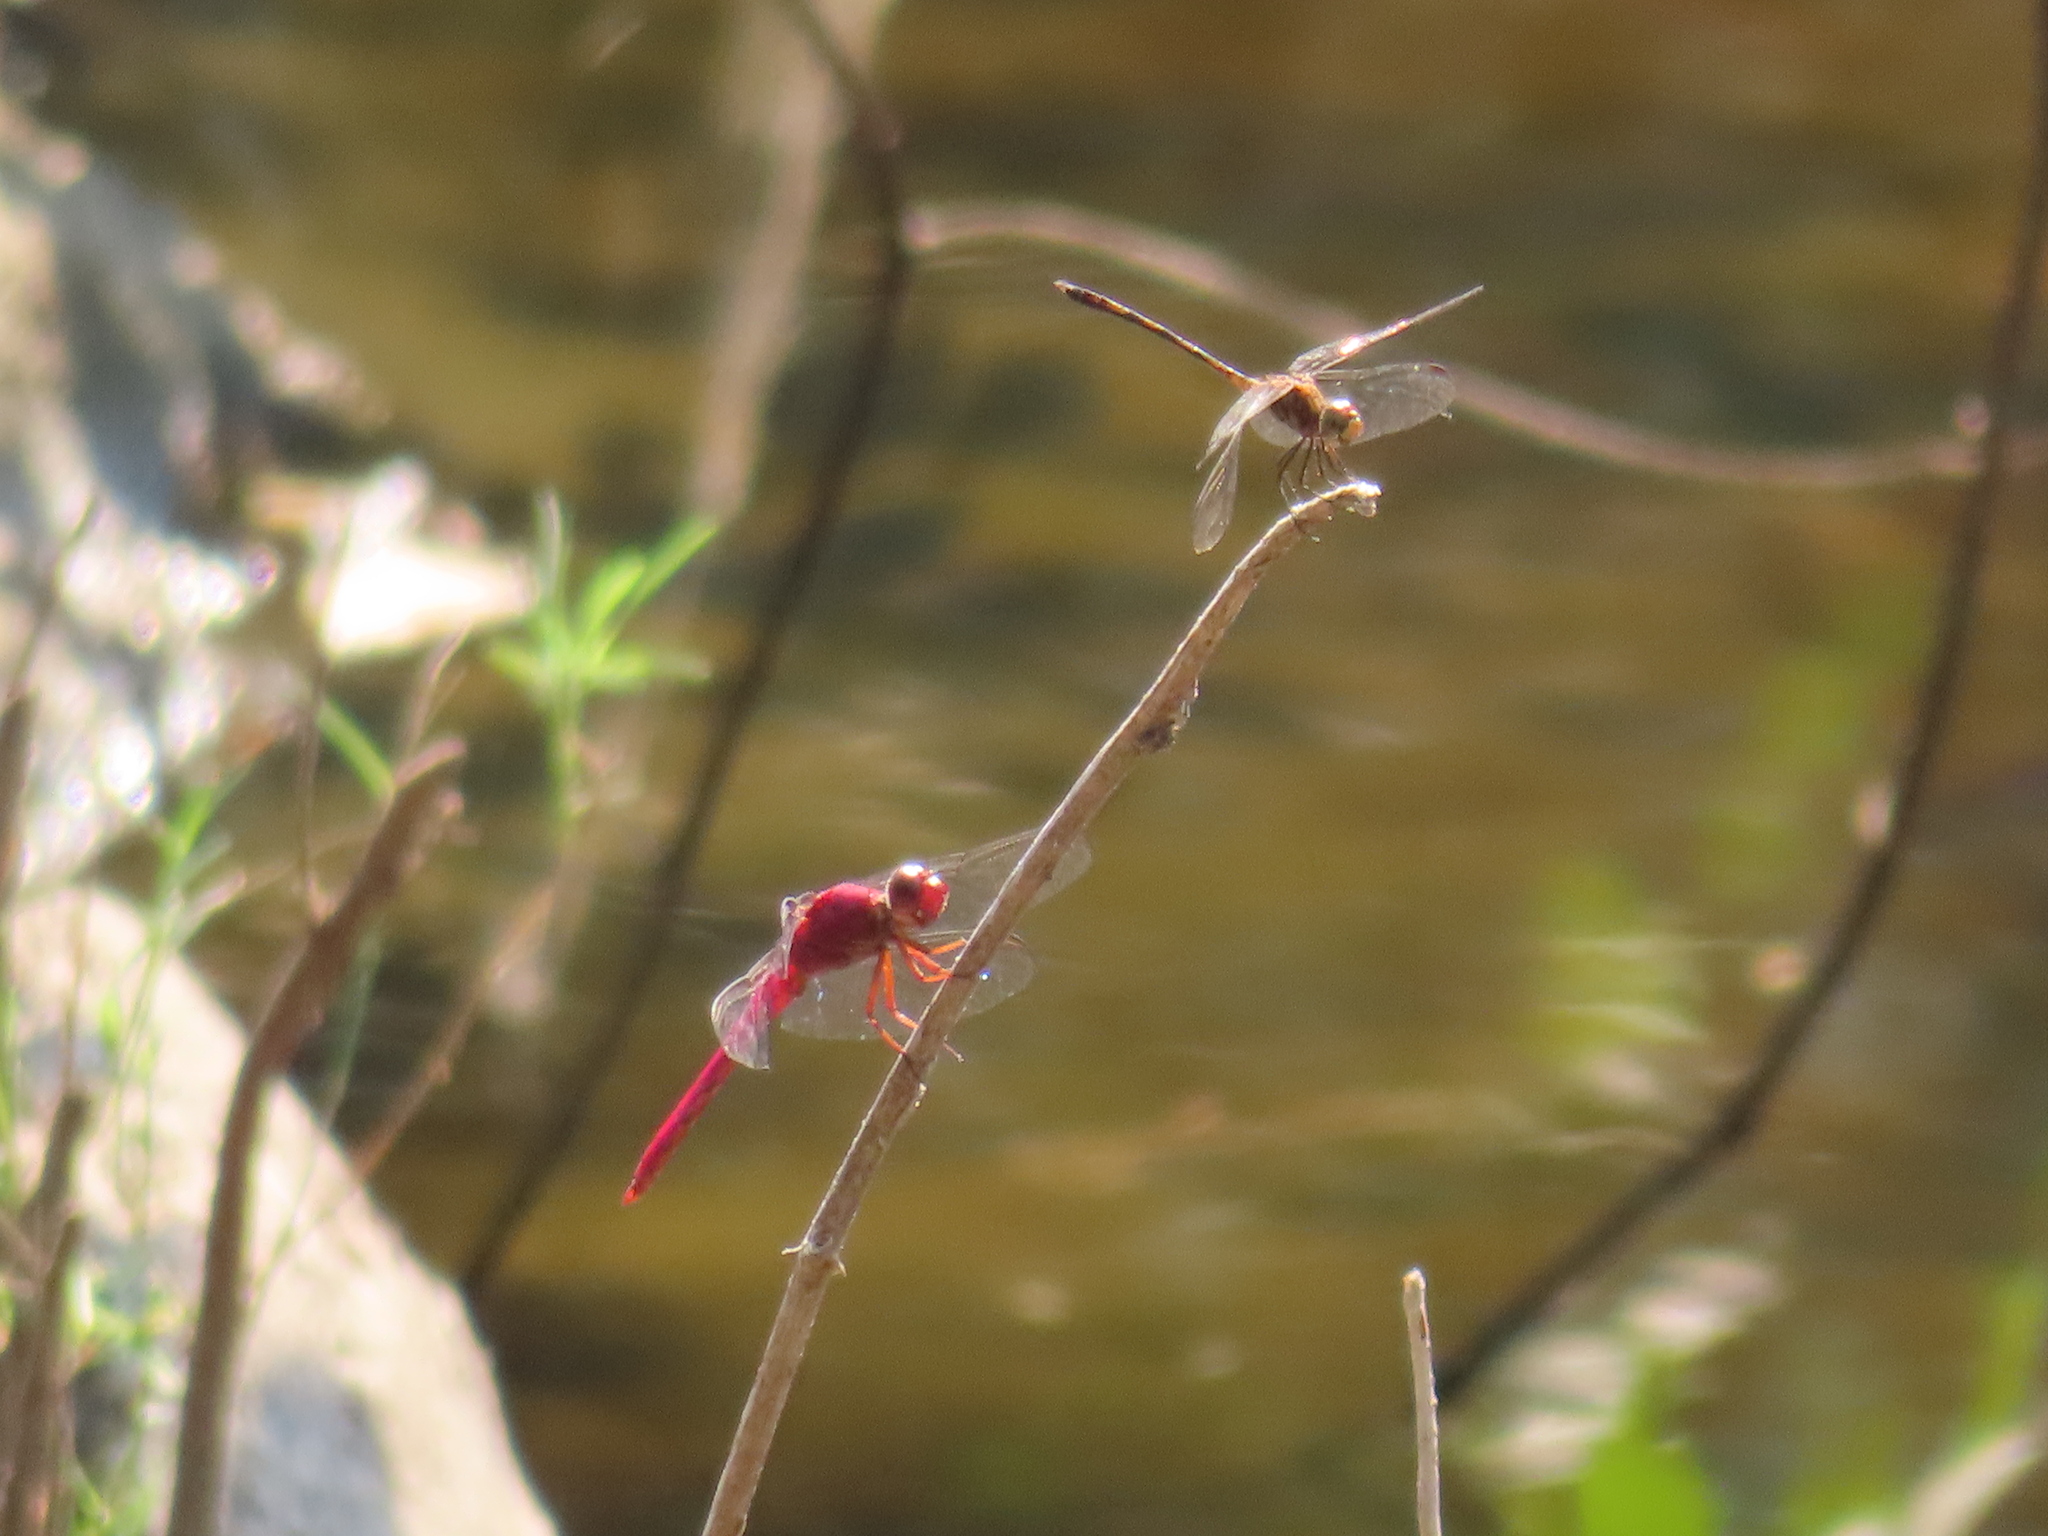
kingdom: Animalia
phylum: Arthropoda
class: Insecta
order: Odonata
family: Libellulidae
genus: Dythemis
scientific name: Dythemis sterilis
